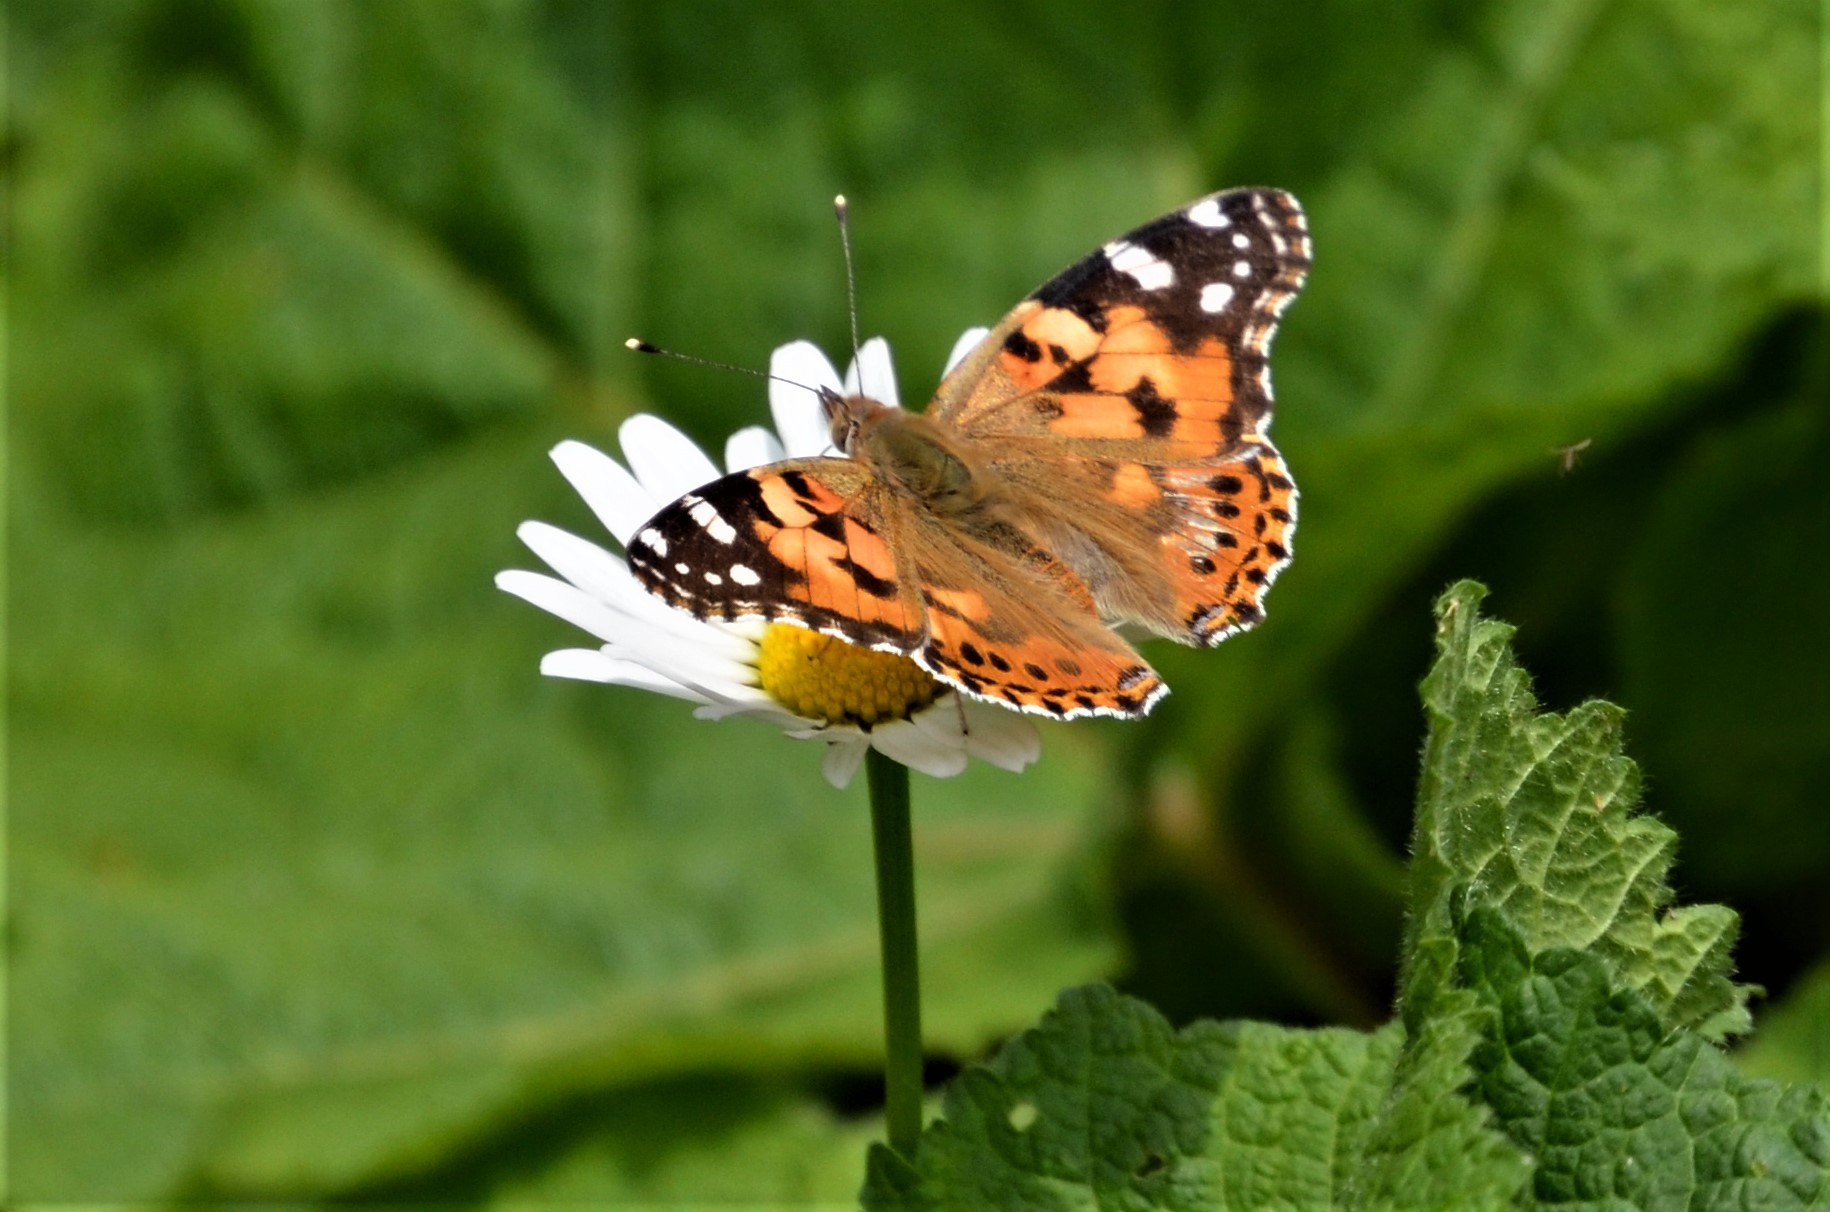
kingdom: Animalia
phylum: Arthropoda
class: Insecta
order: Lepidoptera
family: Nymphalidae
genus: Vanessa
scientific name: Vanessa cardui
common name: Painted lady
